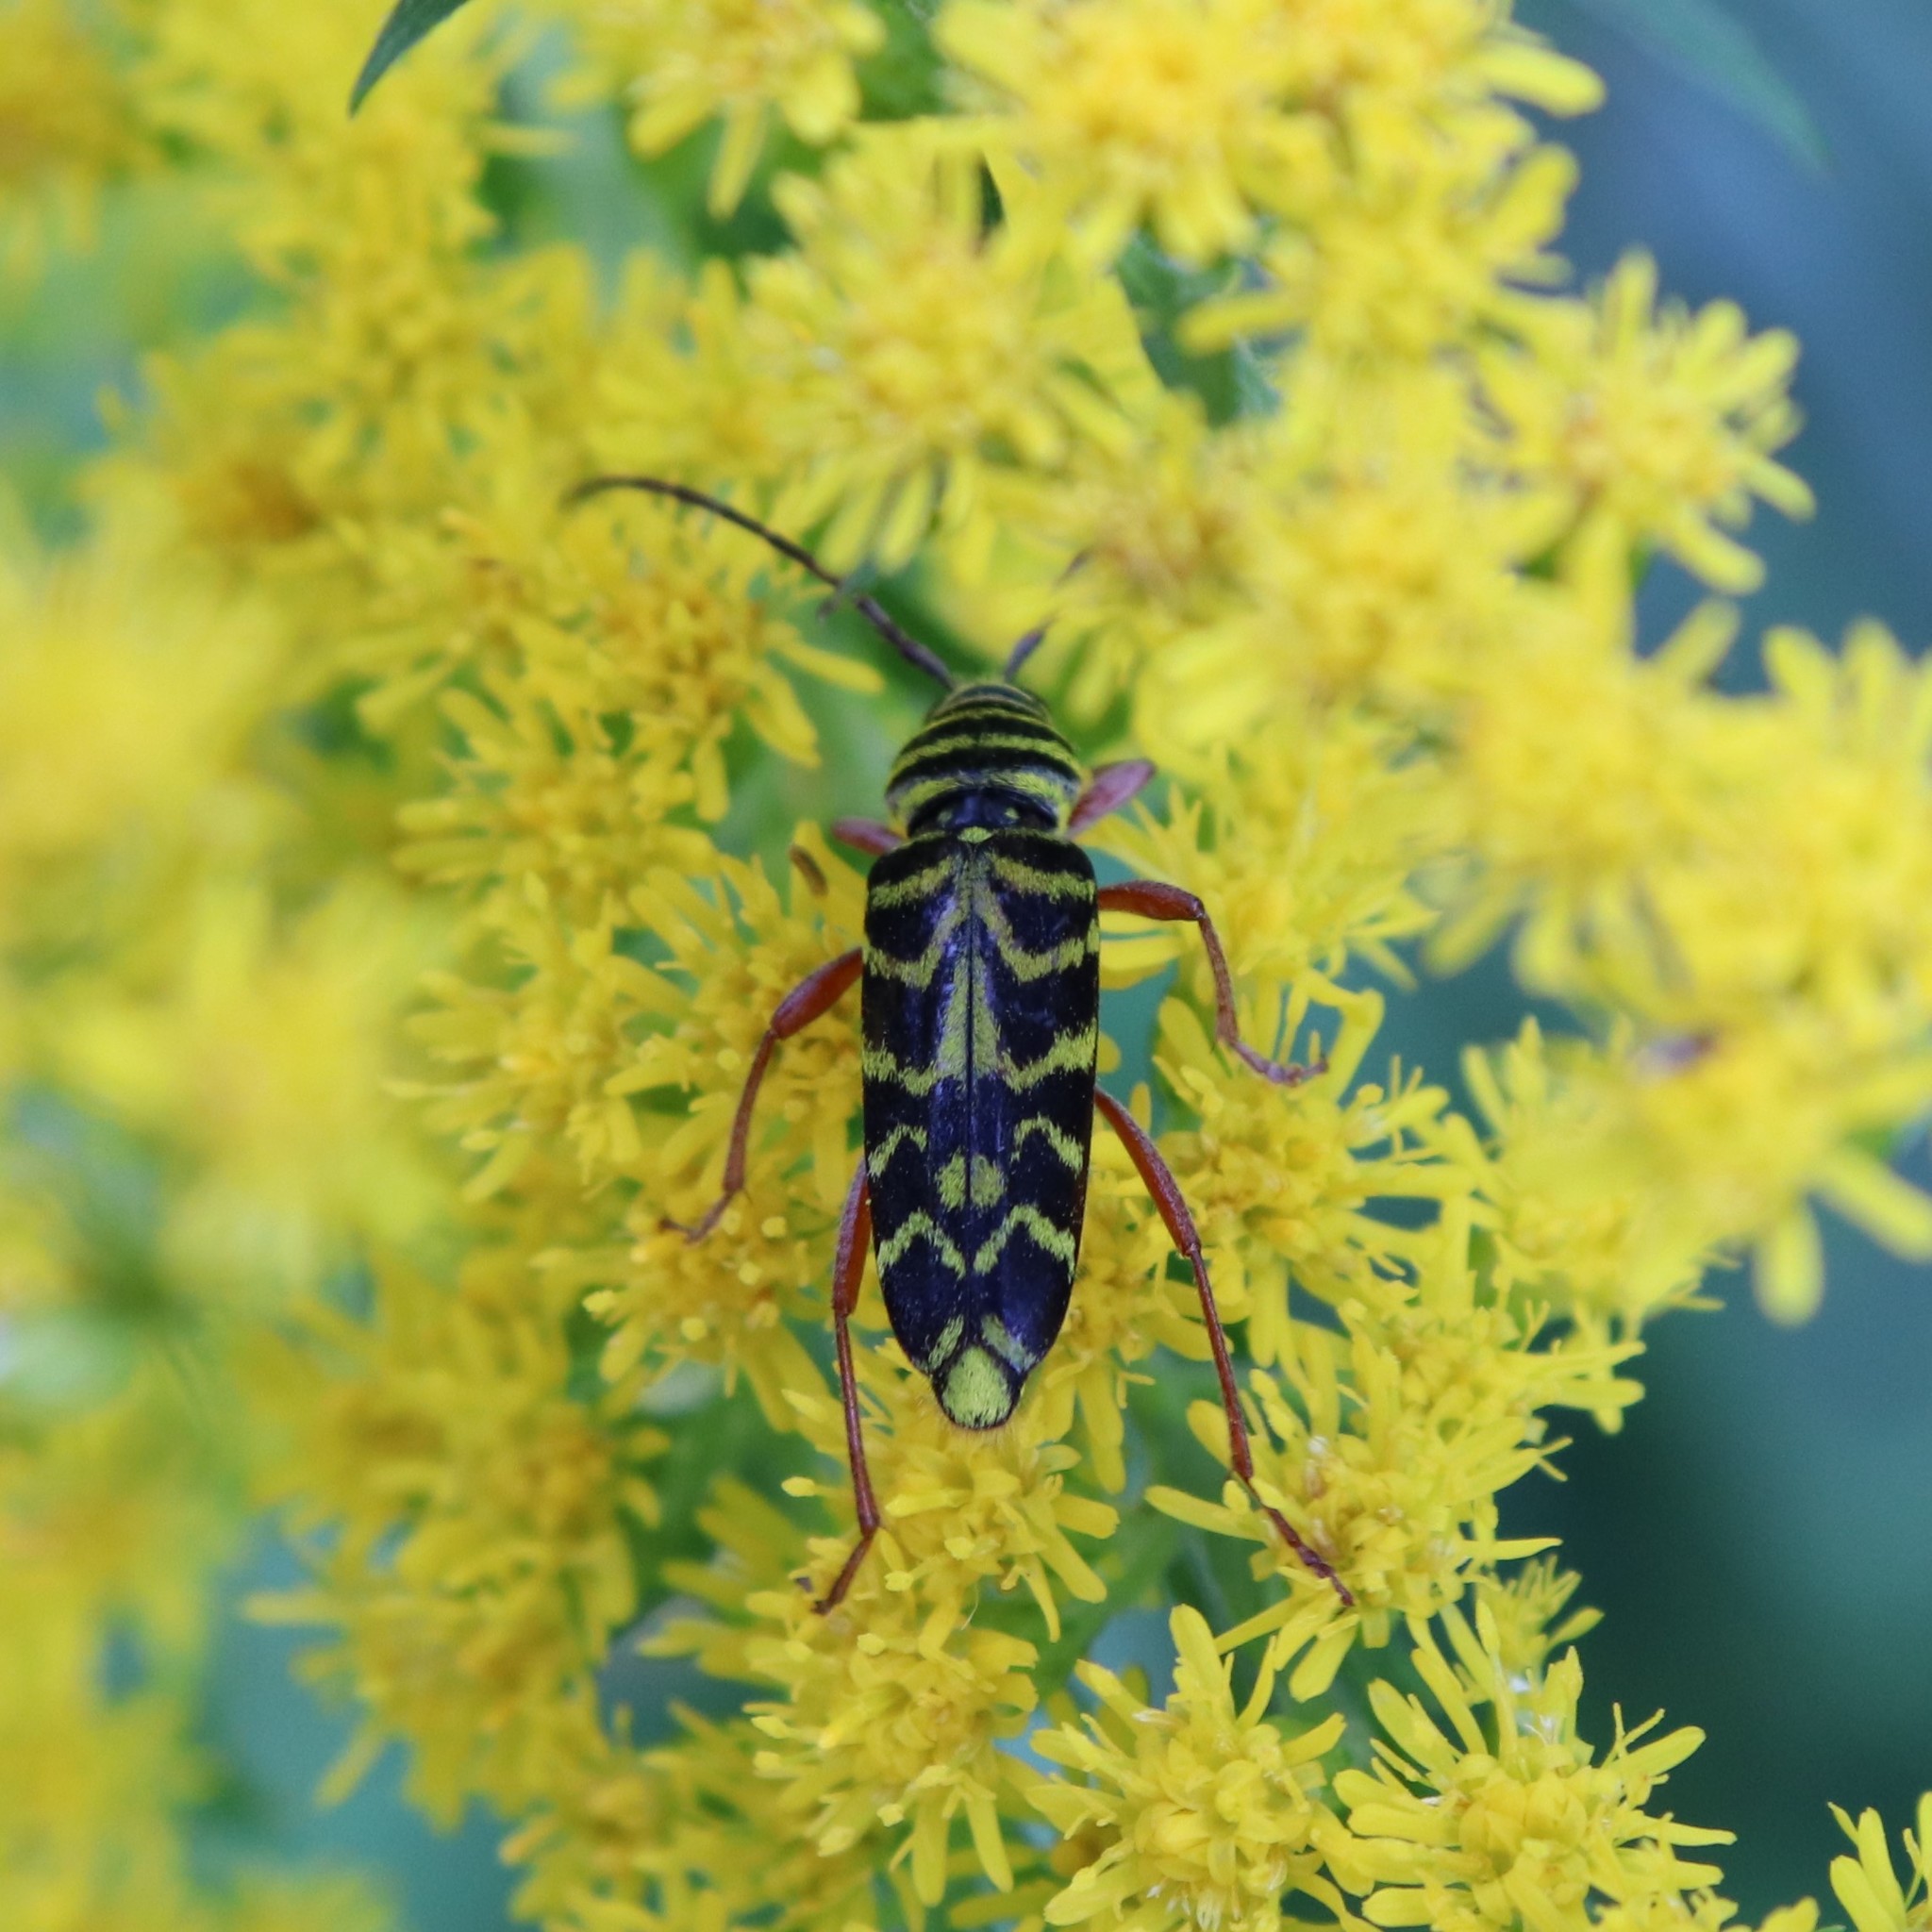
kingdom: Animalia
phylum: Arthropoda
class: Insecta
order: Coleoptera
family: Cerambycidae
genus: Megacyllene
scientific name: Megacyllene robiniae
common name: Locust borer
